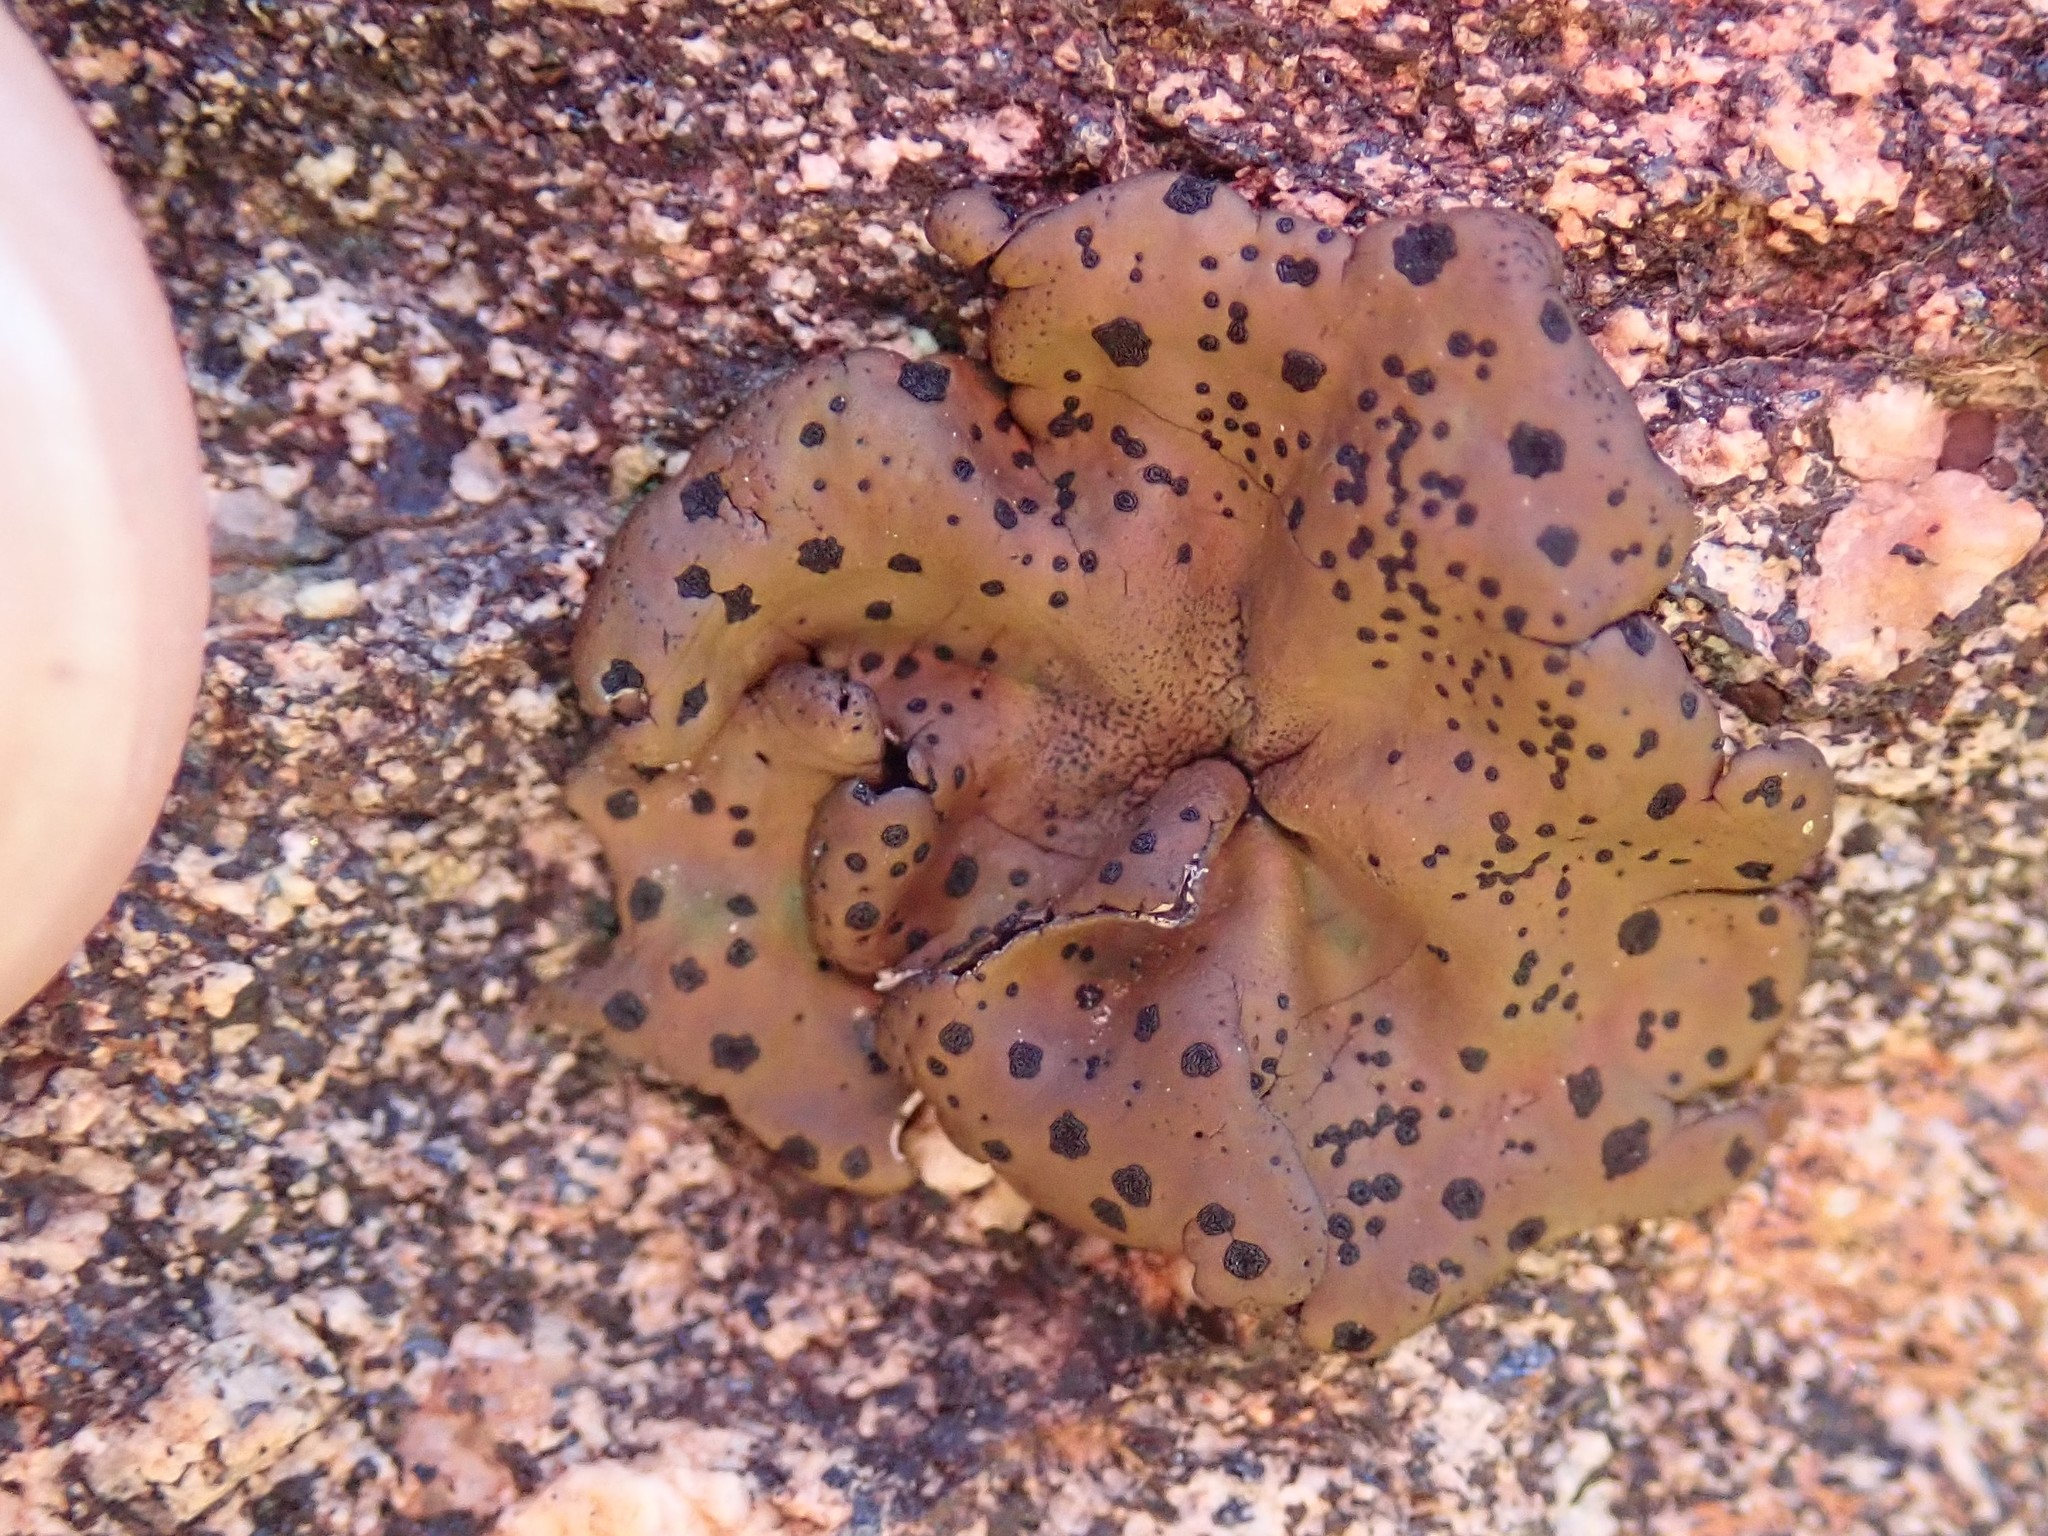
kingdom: Fungi
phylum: Ascomycota
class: Lecanoromycetes
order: Umbilicariales
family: Umbilicariaceae
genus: Umbilicaria
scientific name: Umbilicaria phaea
